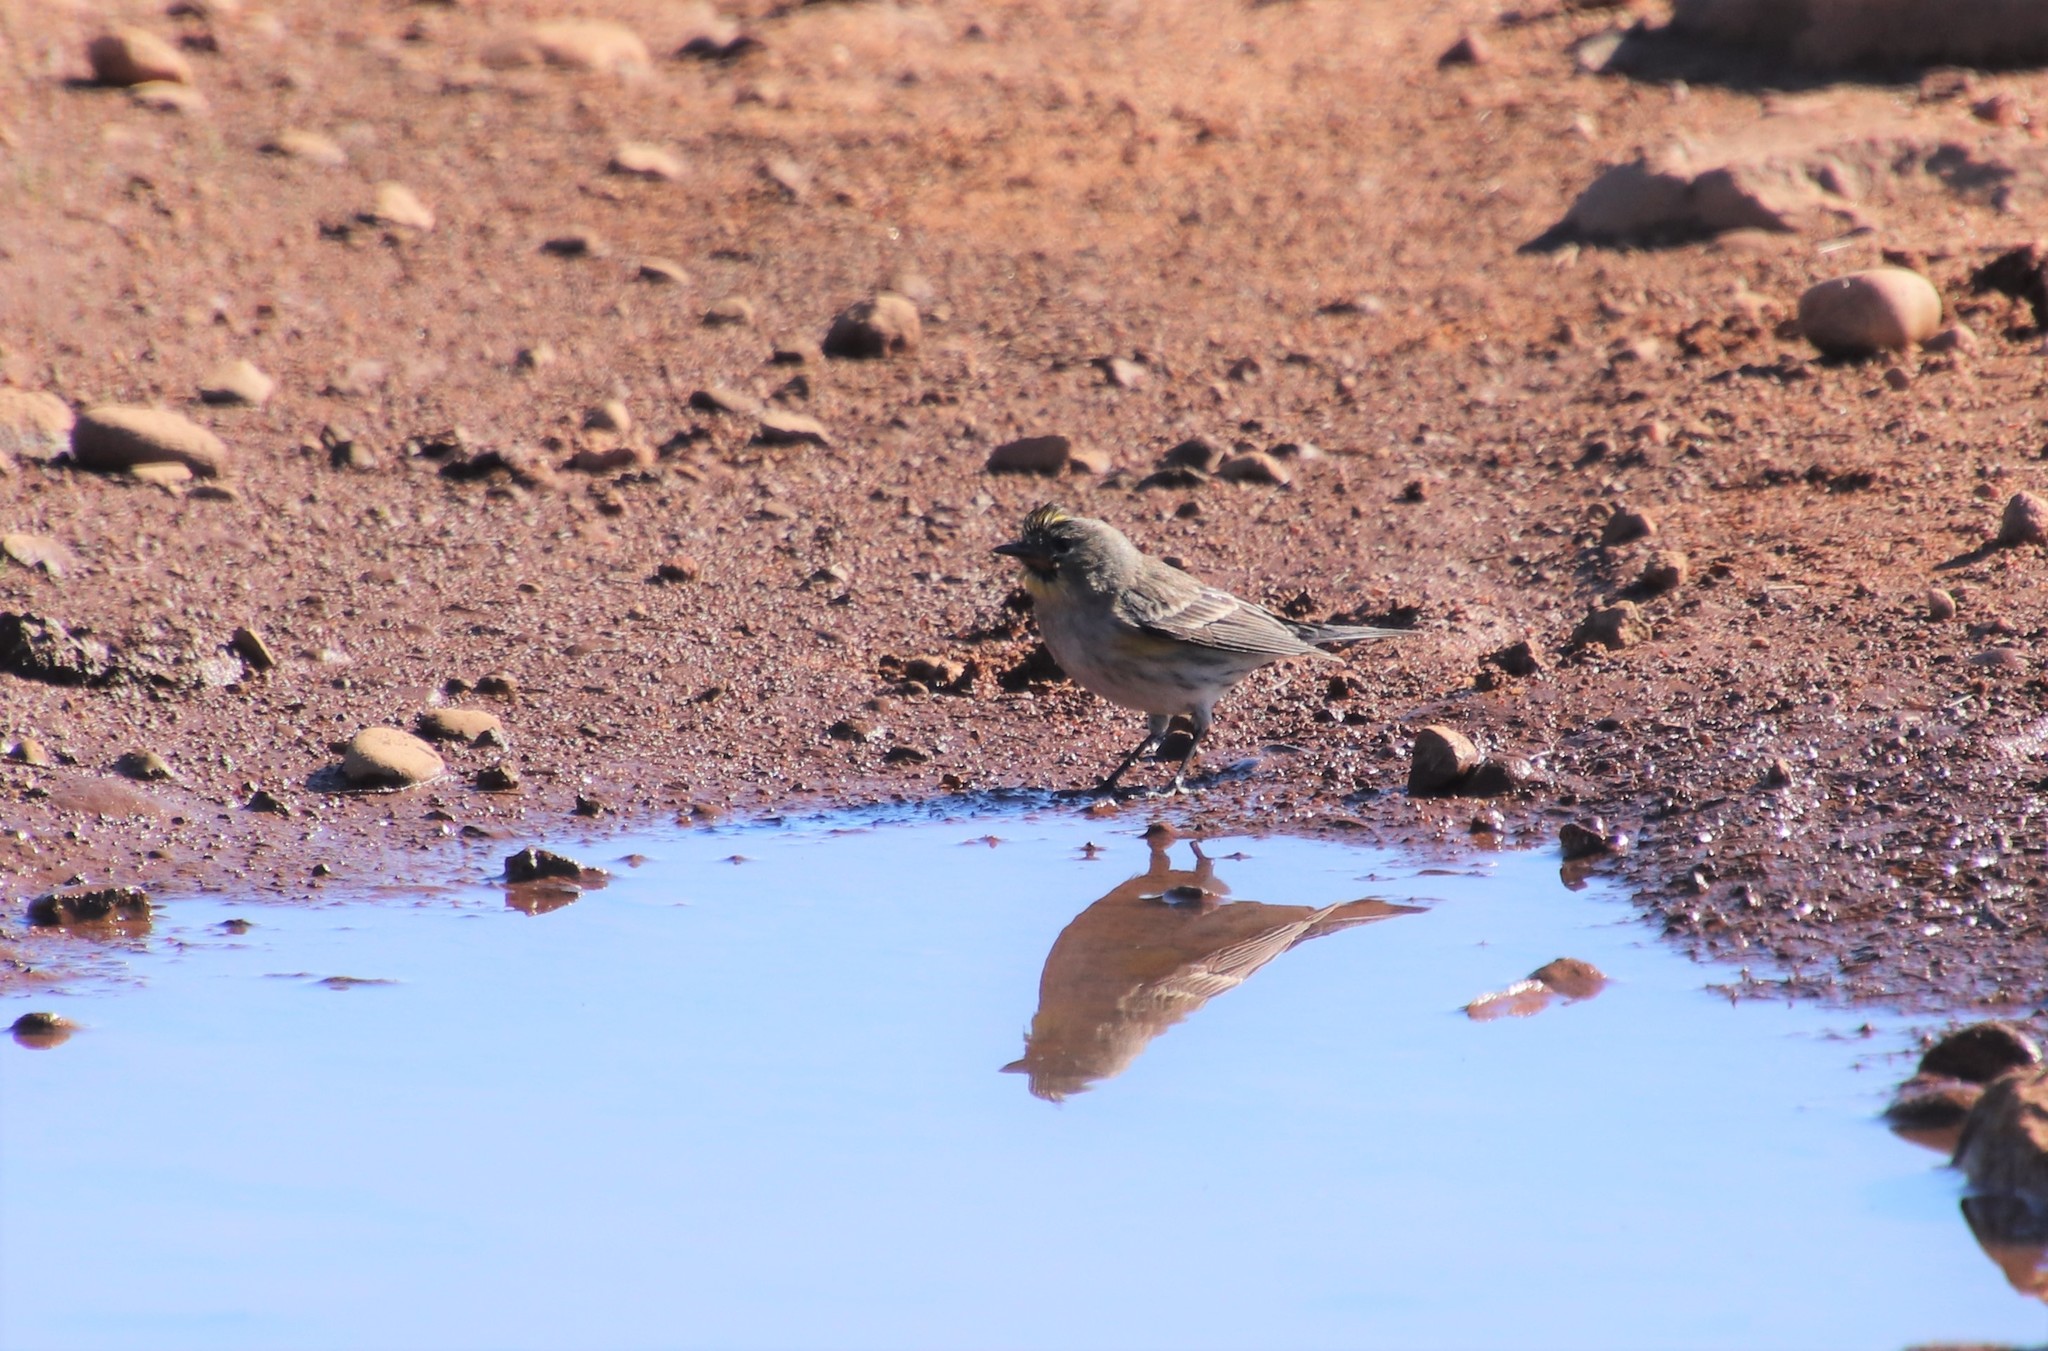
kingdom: Animalia
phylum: Chordata
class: Aves
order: Passeriformes
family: Parulidae
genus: Setophaga
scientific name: Setophaga coronata
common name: Myrtle warbler
